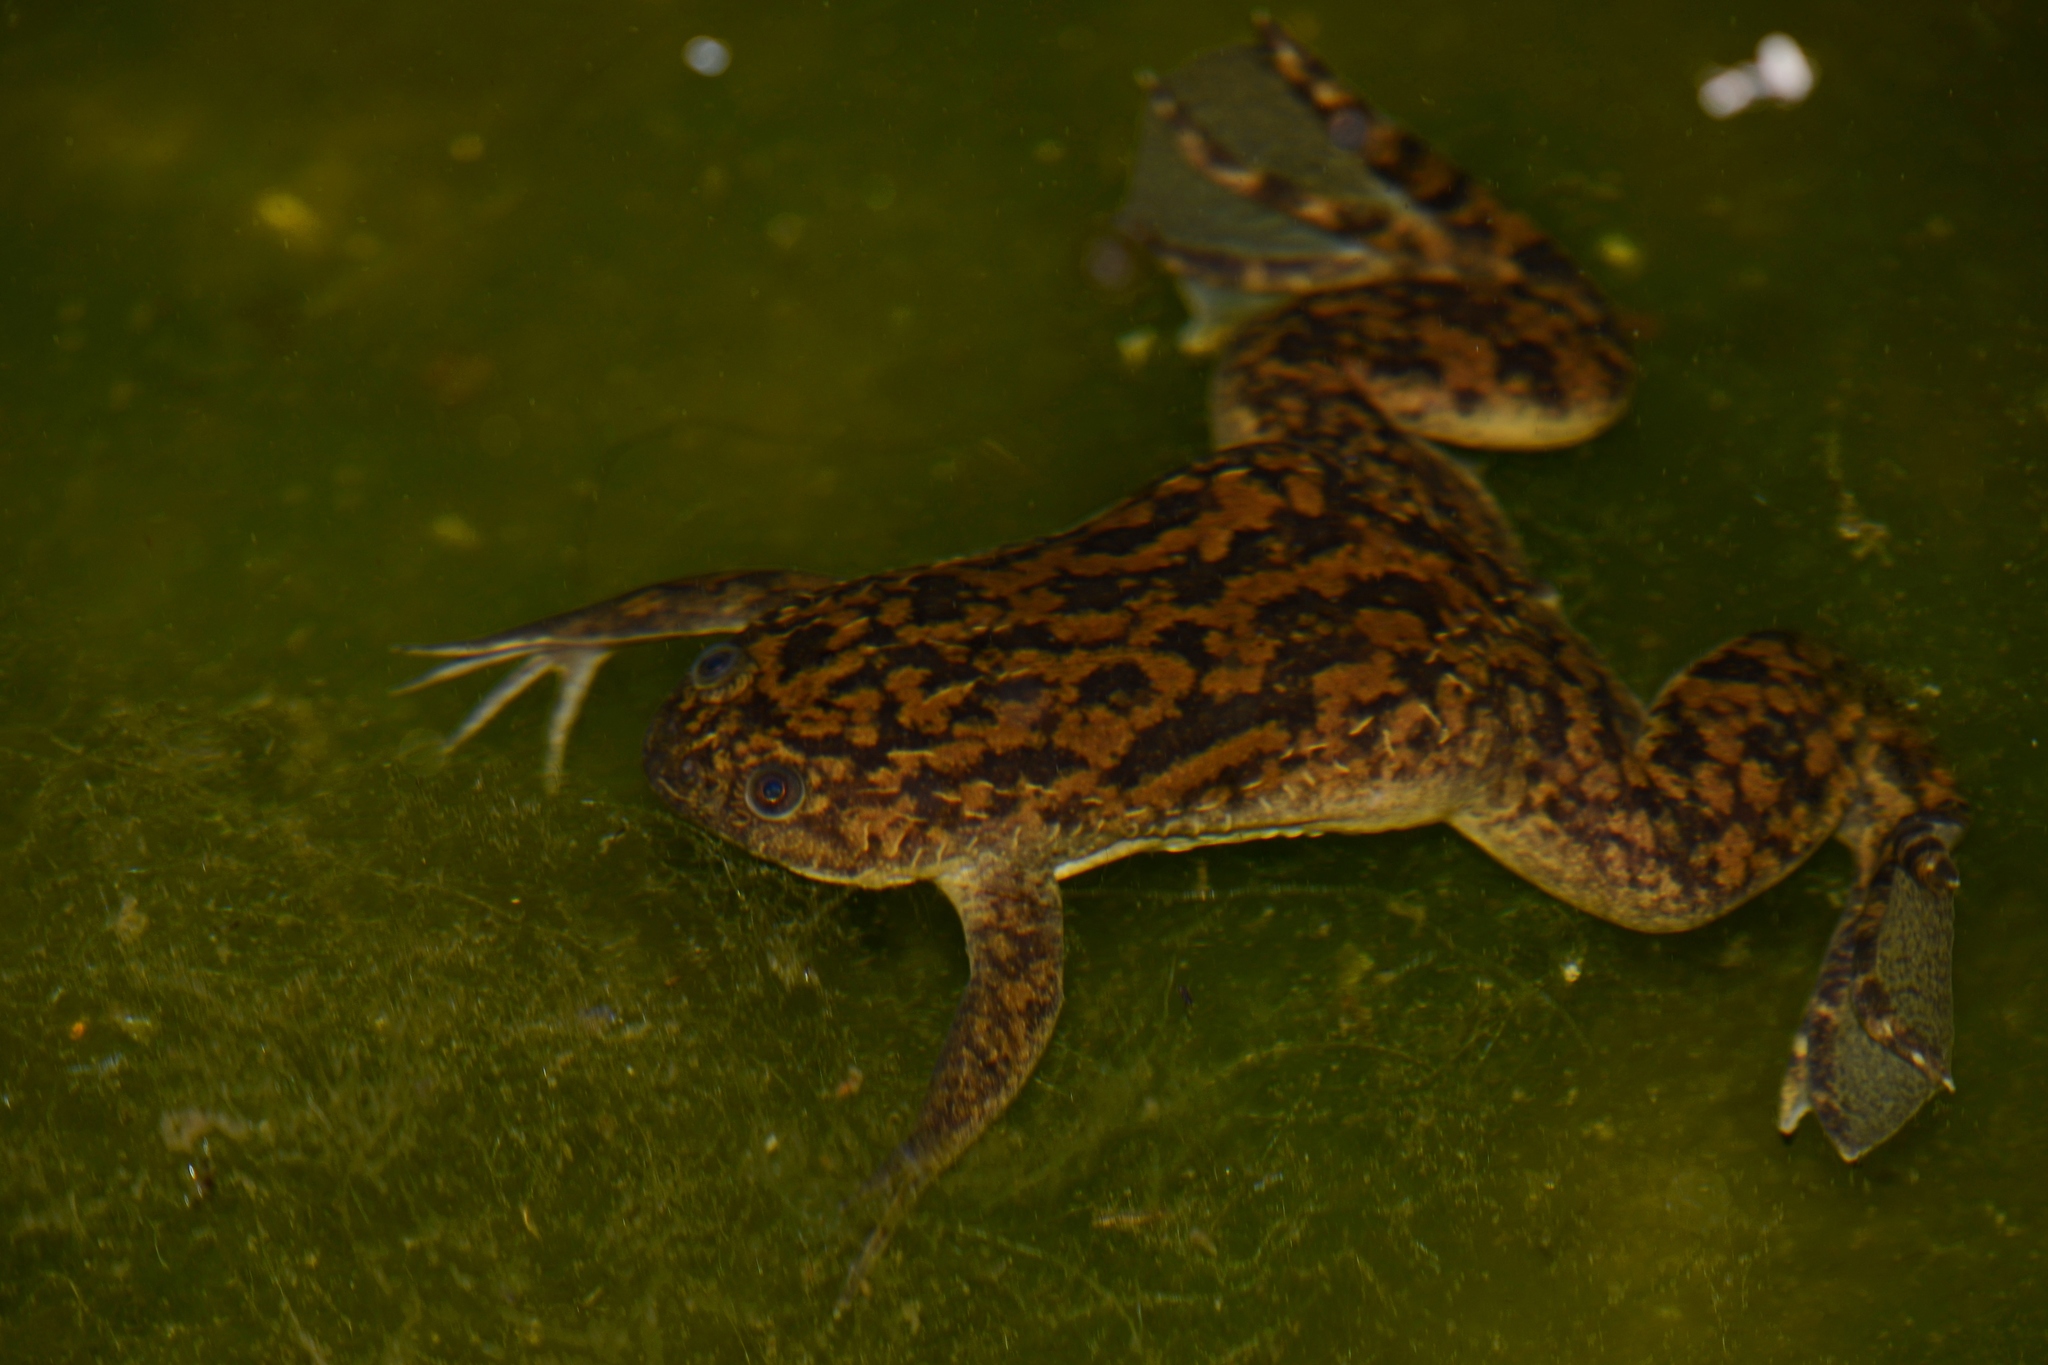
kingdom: Animalia
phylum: Chordata
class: Amphibia
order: Anura
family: Pipidae
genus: Xenopus
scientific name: Xenopus laevis
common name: African clawed frog
